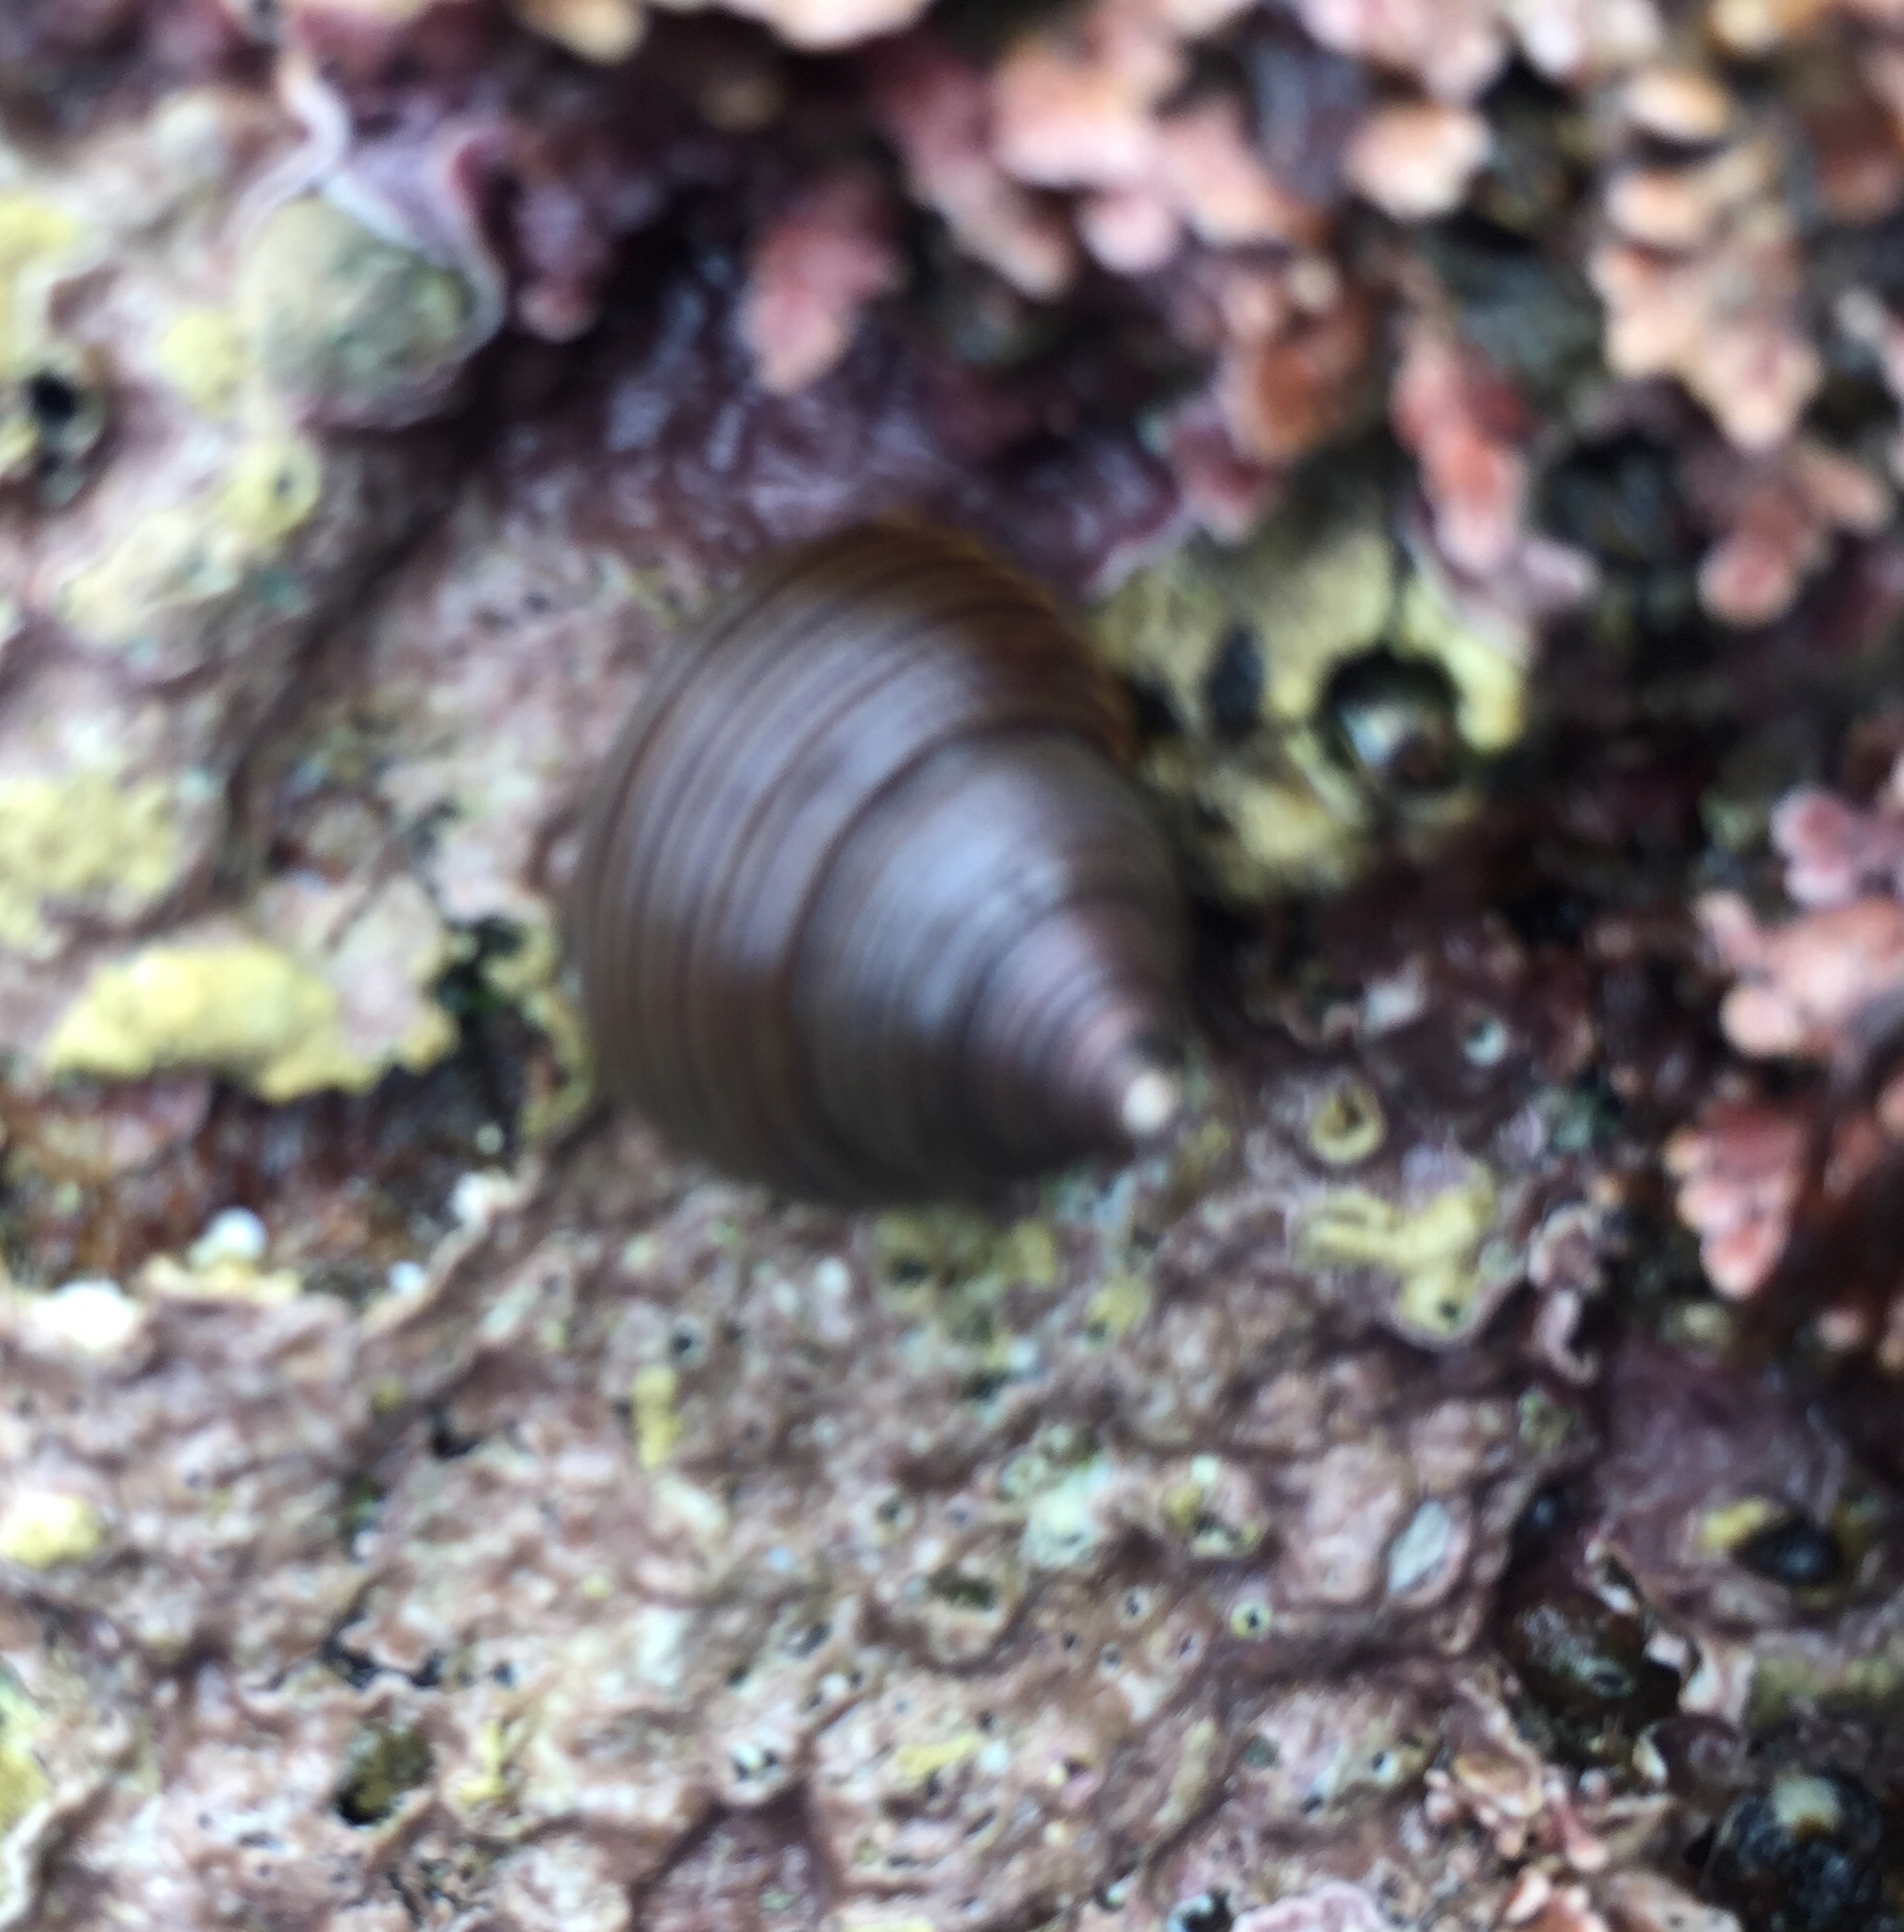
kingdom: Animalia
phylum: Mollusca
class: Gastropoda
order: Trochida
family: Calliostomatidae
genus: Calliostoma
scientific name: Calliostoma ligatum
